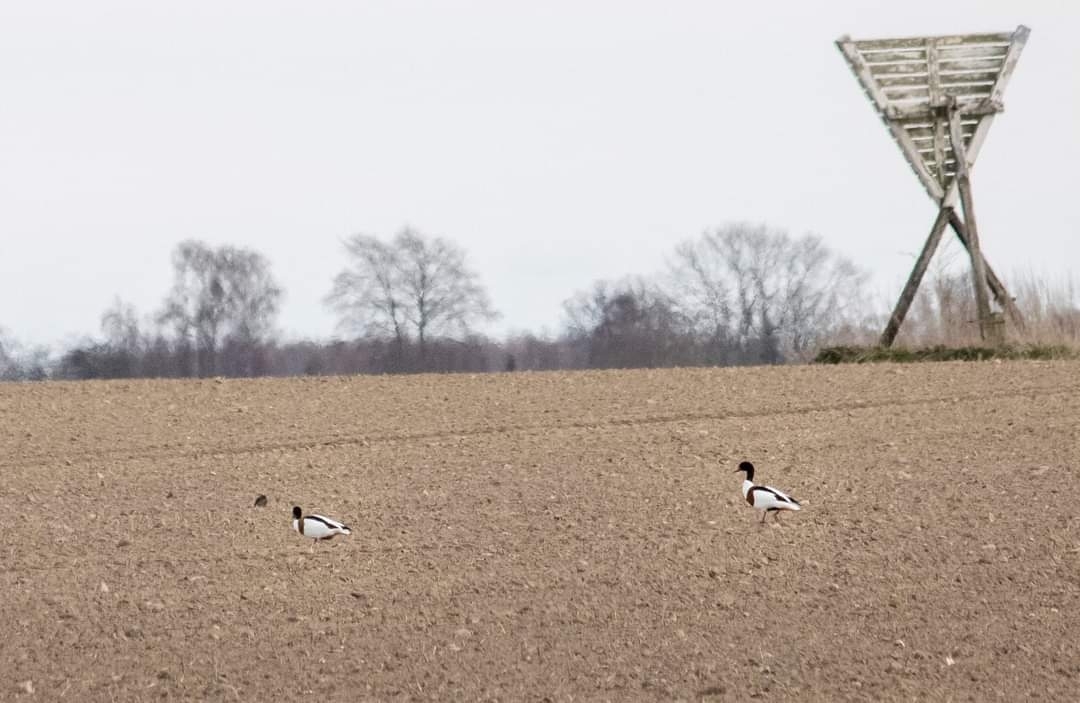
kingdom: Animalia
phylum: Chordata
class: Aves
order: Anseriformes
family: Anatidae
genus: Tadorna
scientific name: Tadorna tadorna
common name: Common shelduck
